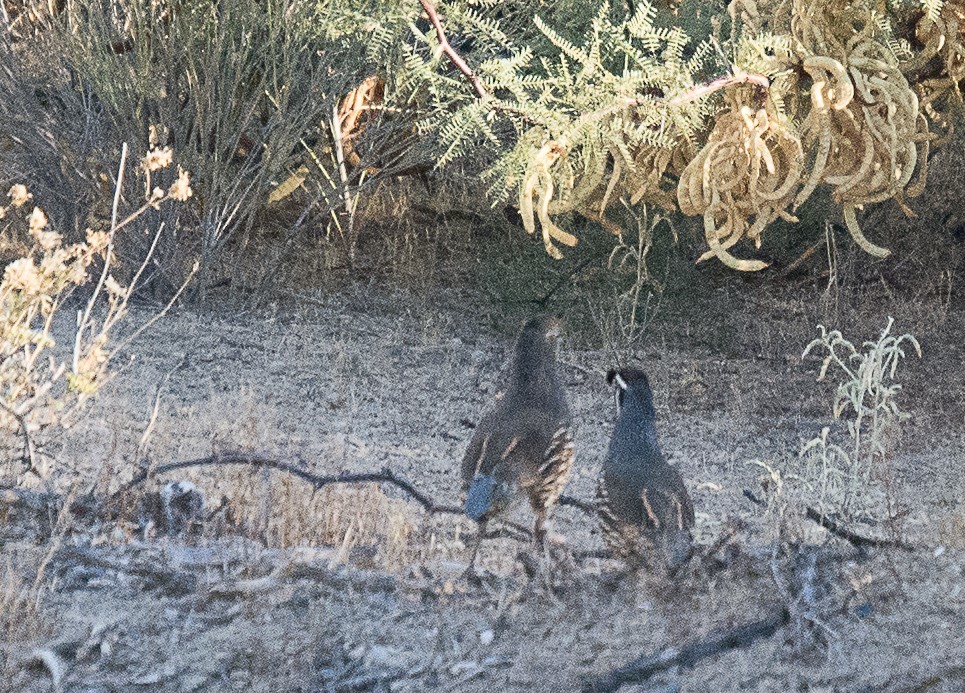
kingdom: Animalia
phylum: Chordata
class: Aves
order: Galliformes
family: Odontophoridae
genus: Callipepla
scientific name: Callipepla californica
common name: California quail
